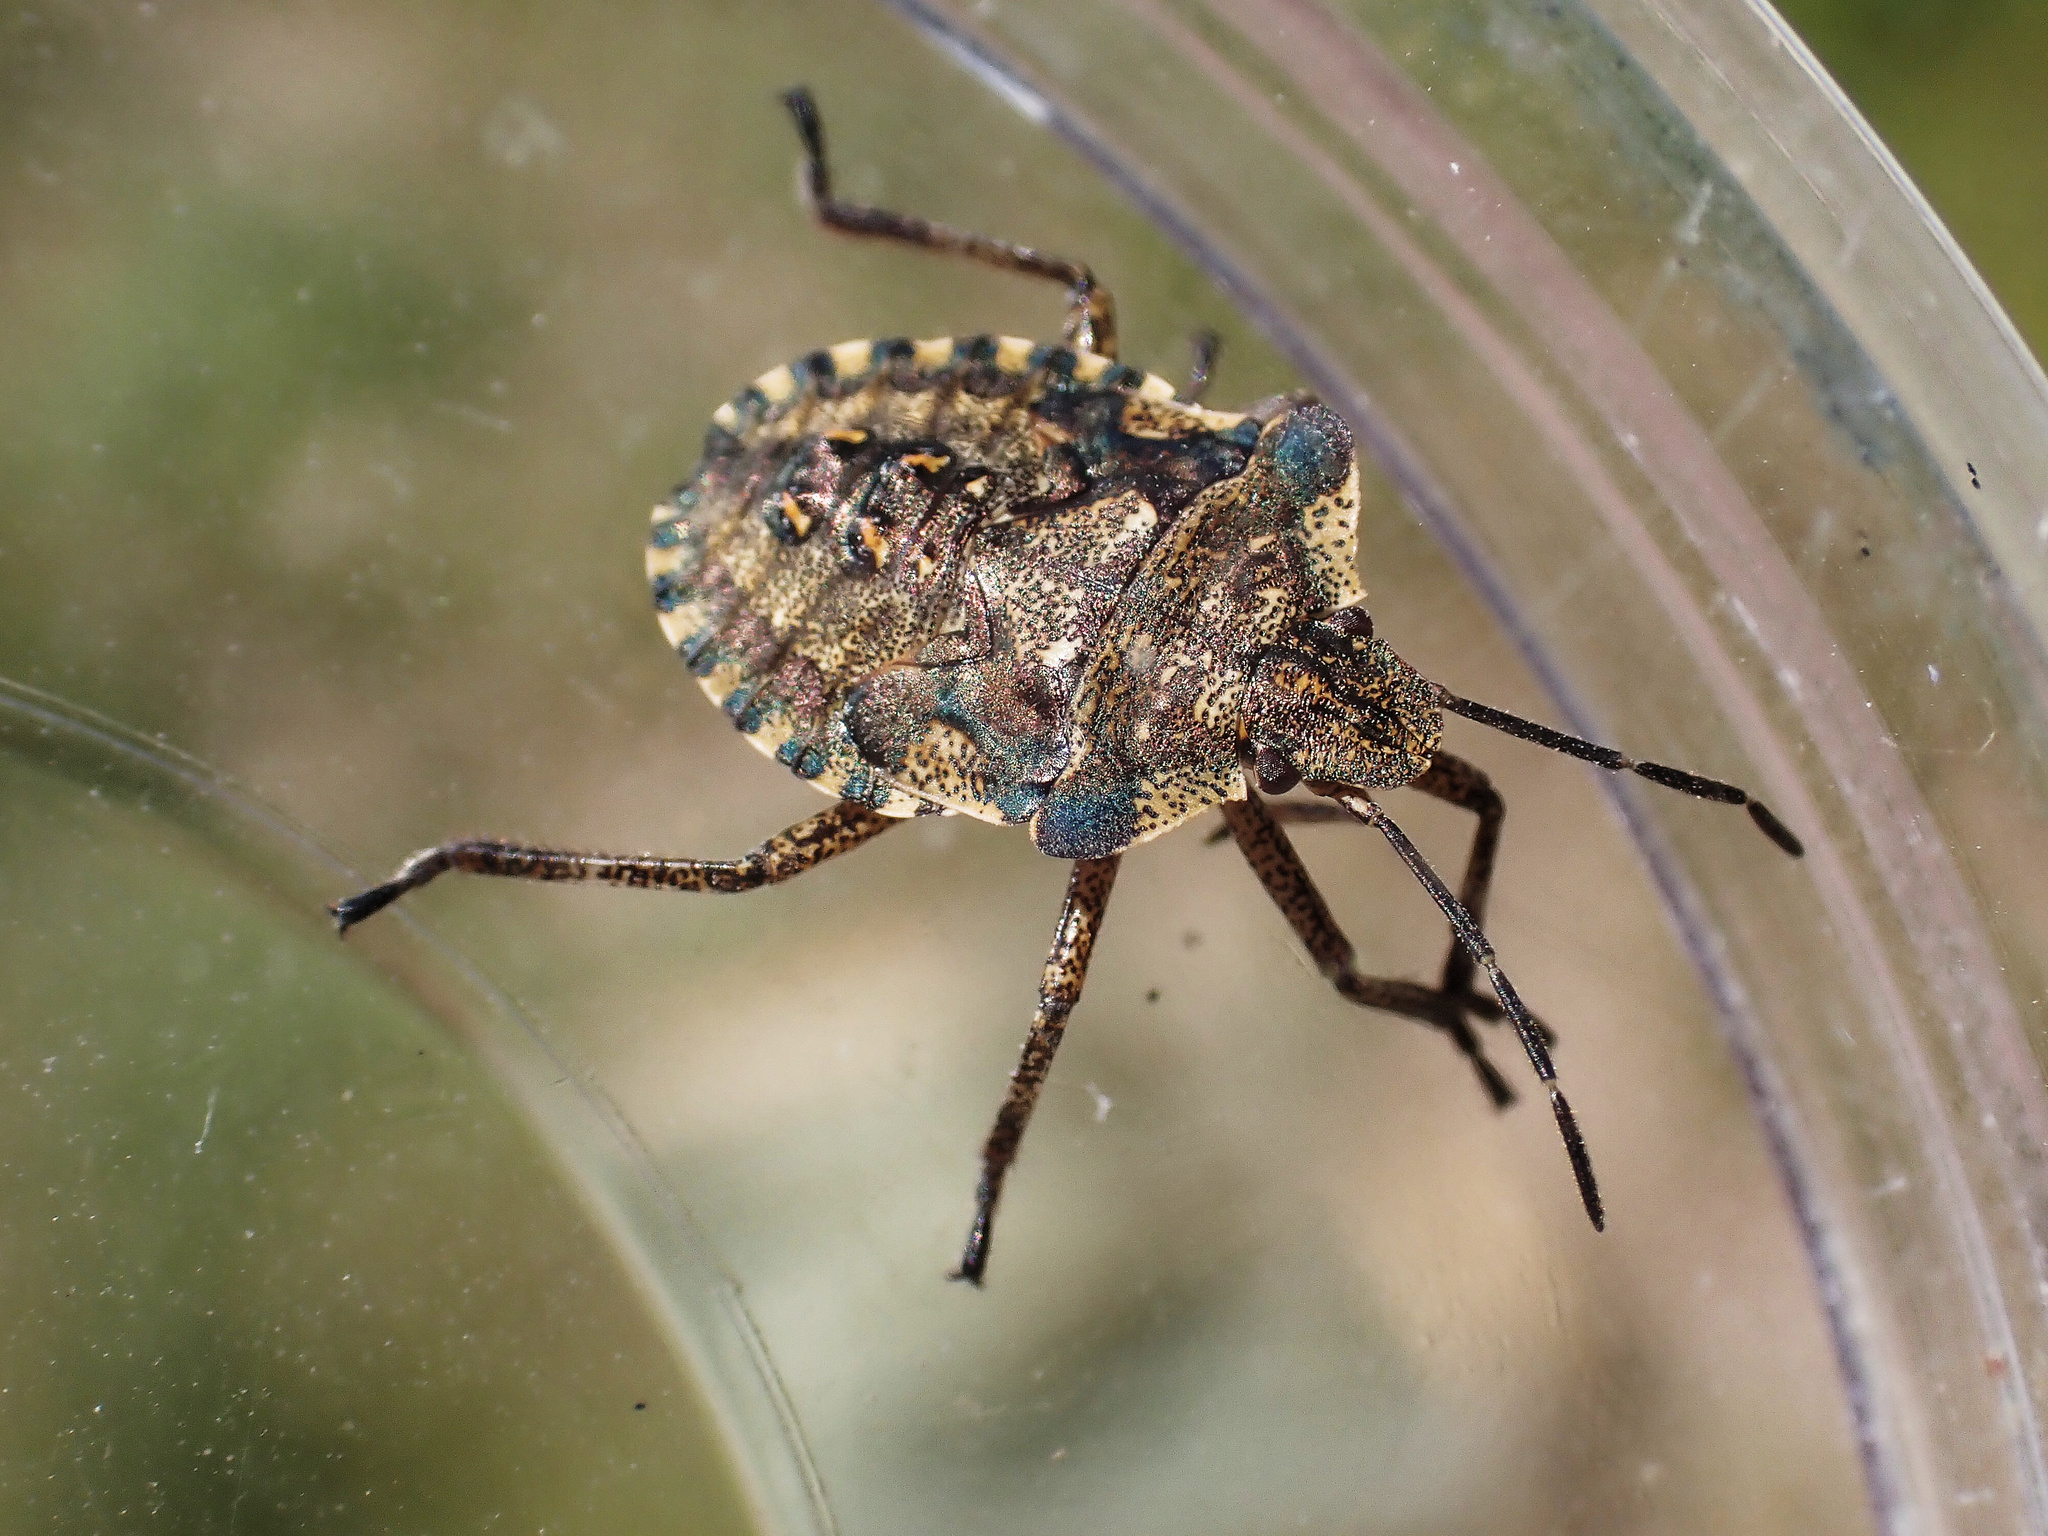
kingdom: Animalia
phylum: Arthropoda
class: Insecta
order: Hemiptera
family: Pentatomidae
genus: Pentatoma
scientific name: Pentatoma rufipes
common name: Forest bug
